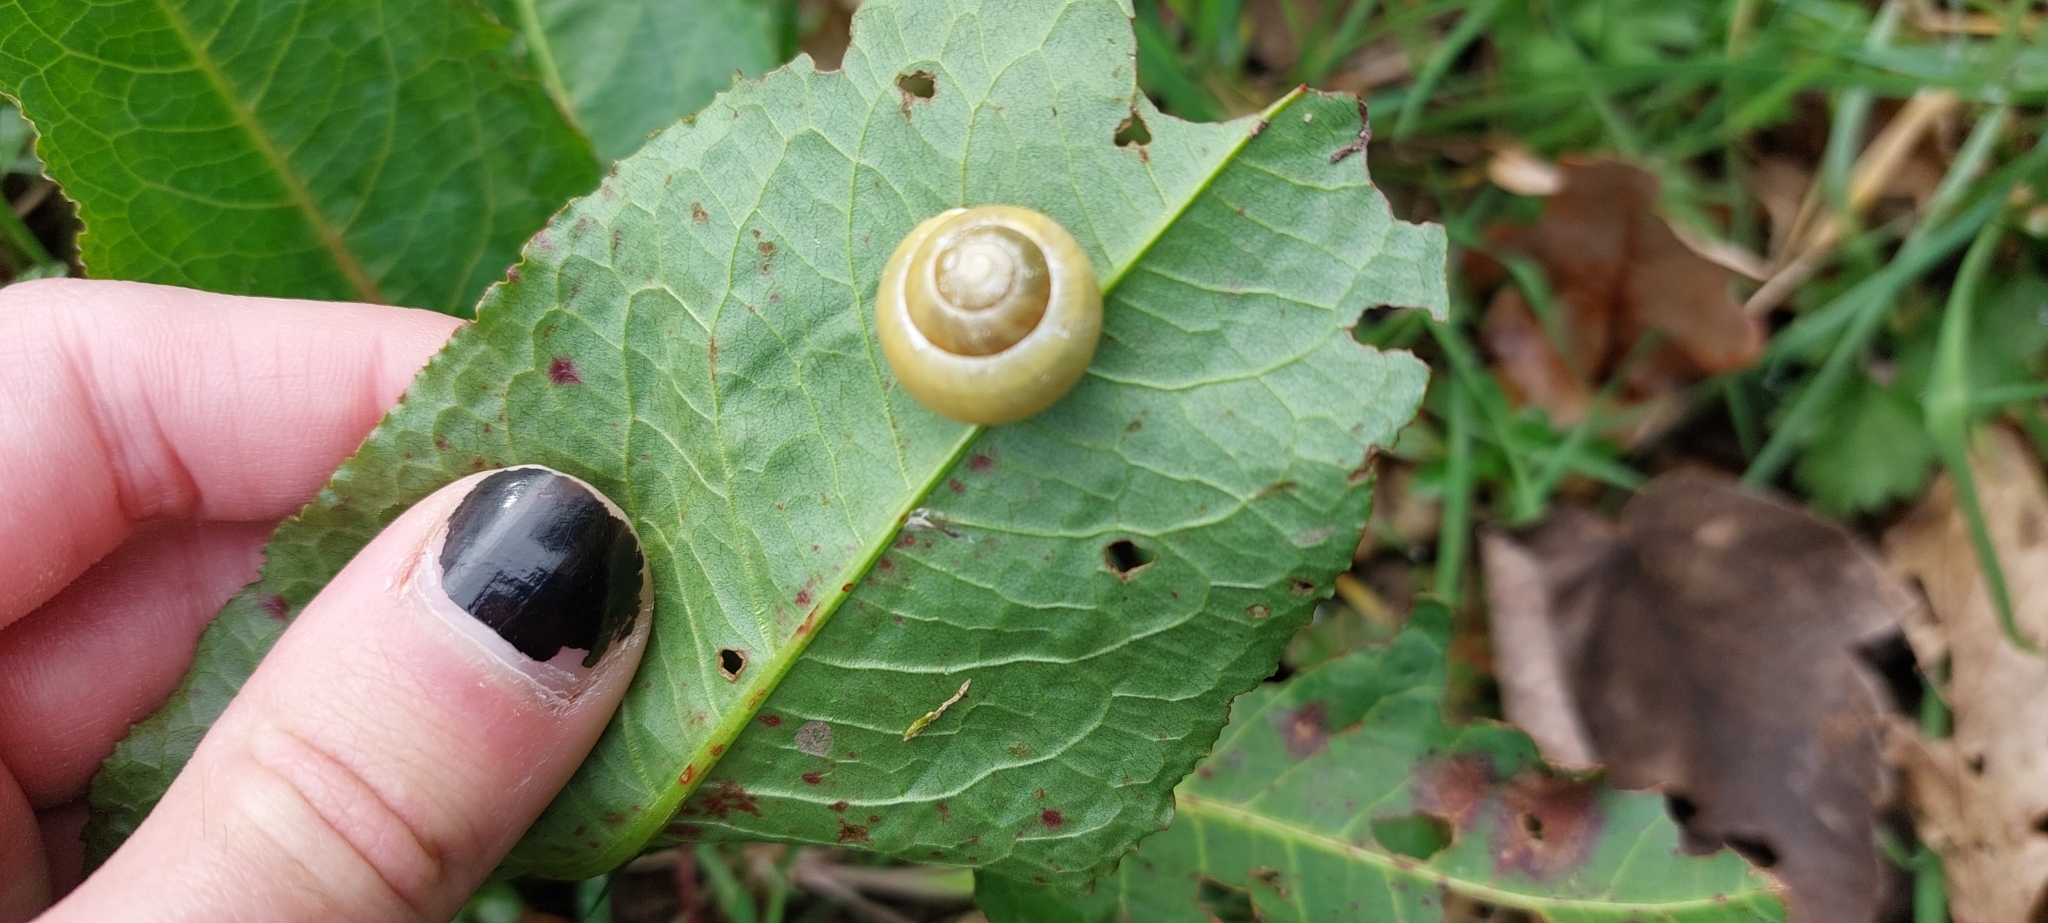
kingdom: Animalia
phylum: Mollusca
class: Gastropoda
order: Stylommatophora
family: Helicidae
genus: Cepaea
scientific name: Cepaea hortensis
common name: White-lip gardensnail
